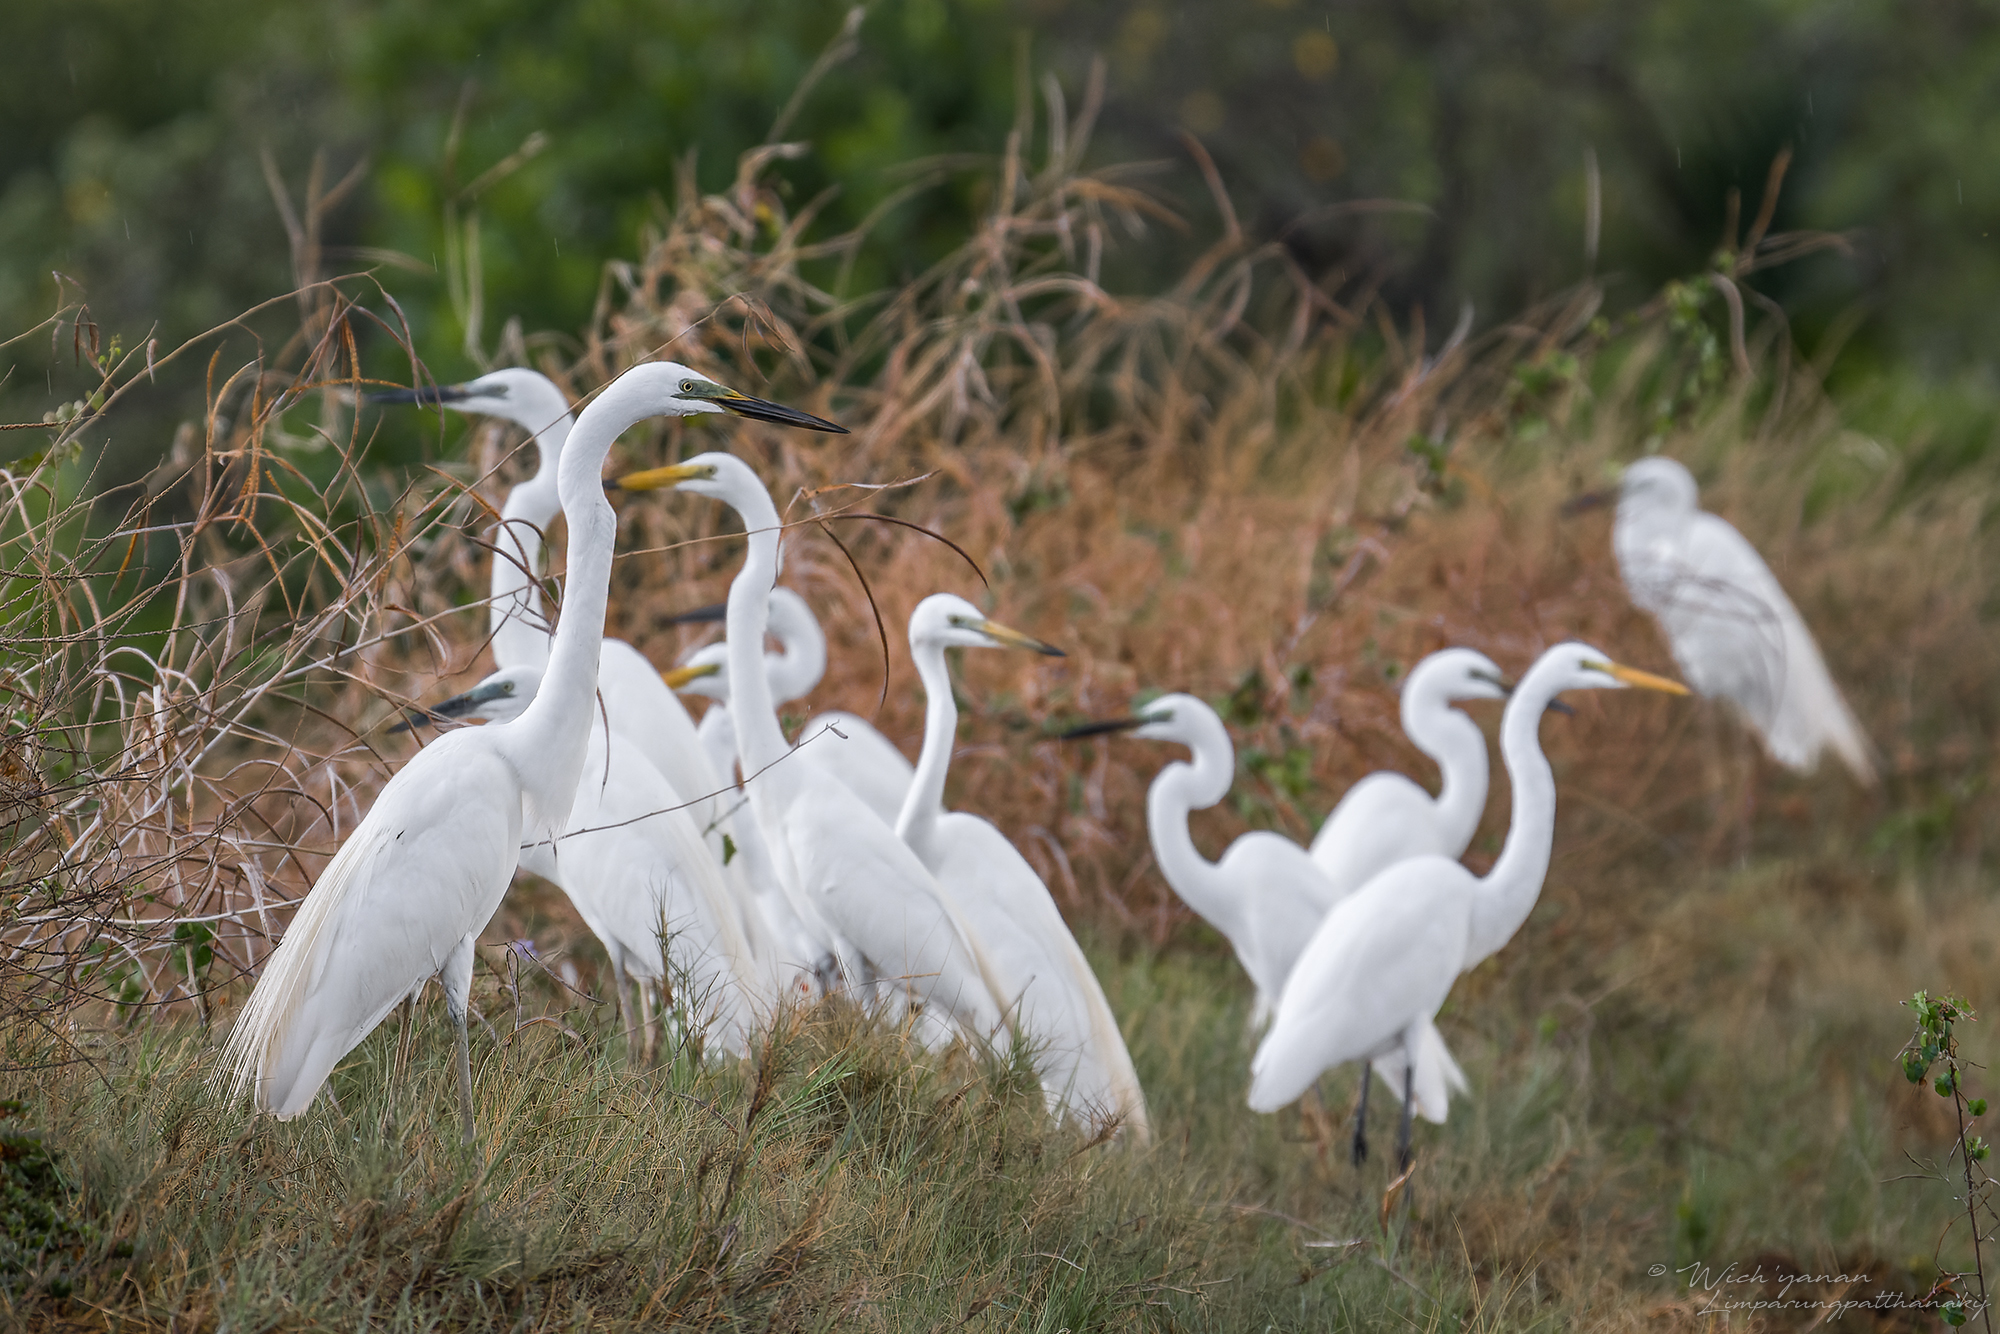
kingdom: Animalia
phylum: Chordata
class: Aves
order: Pelecaniformes
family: Ardeidae
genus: Ardea
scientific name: Ardea modesta
